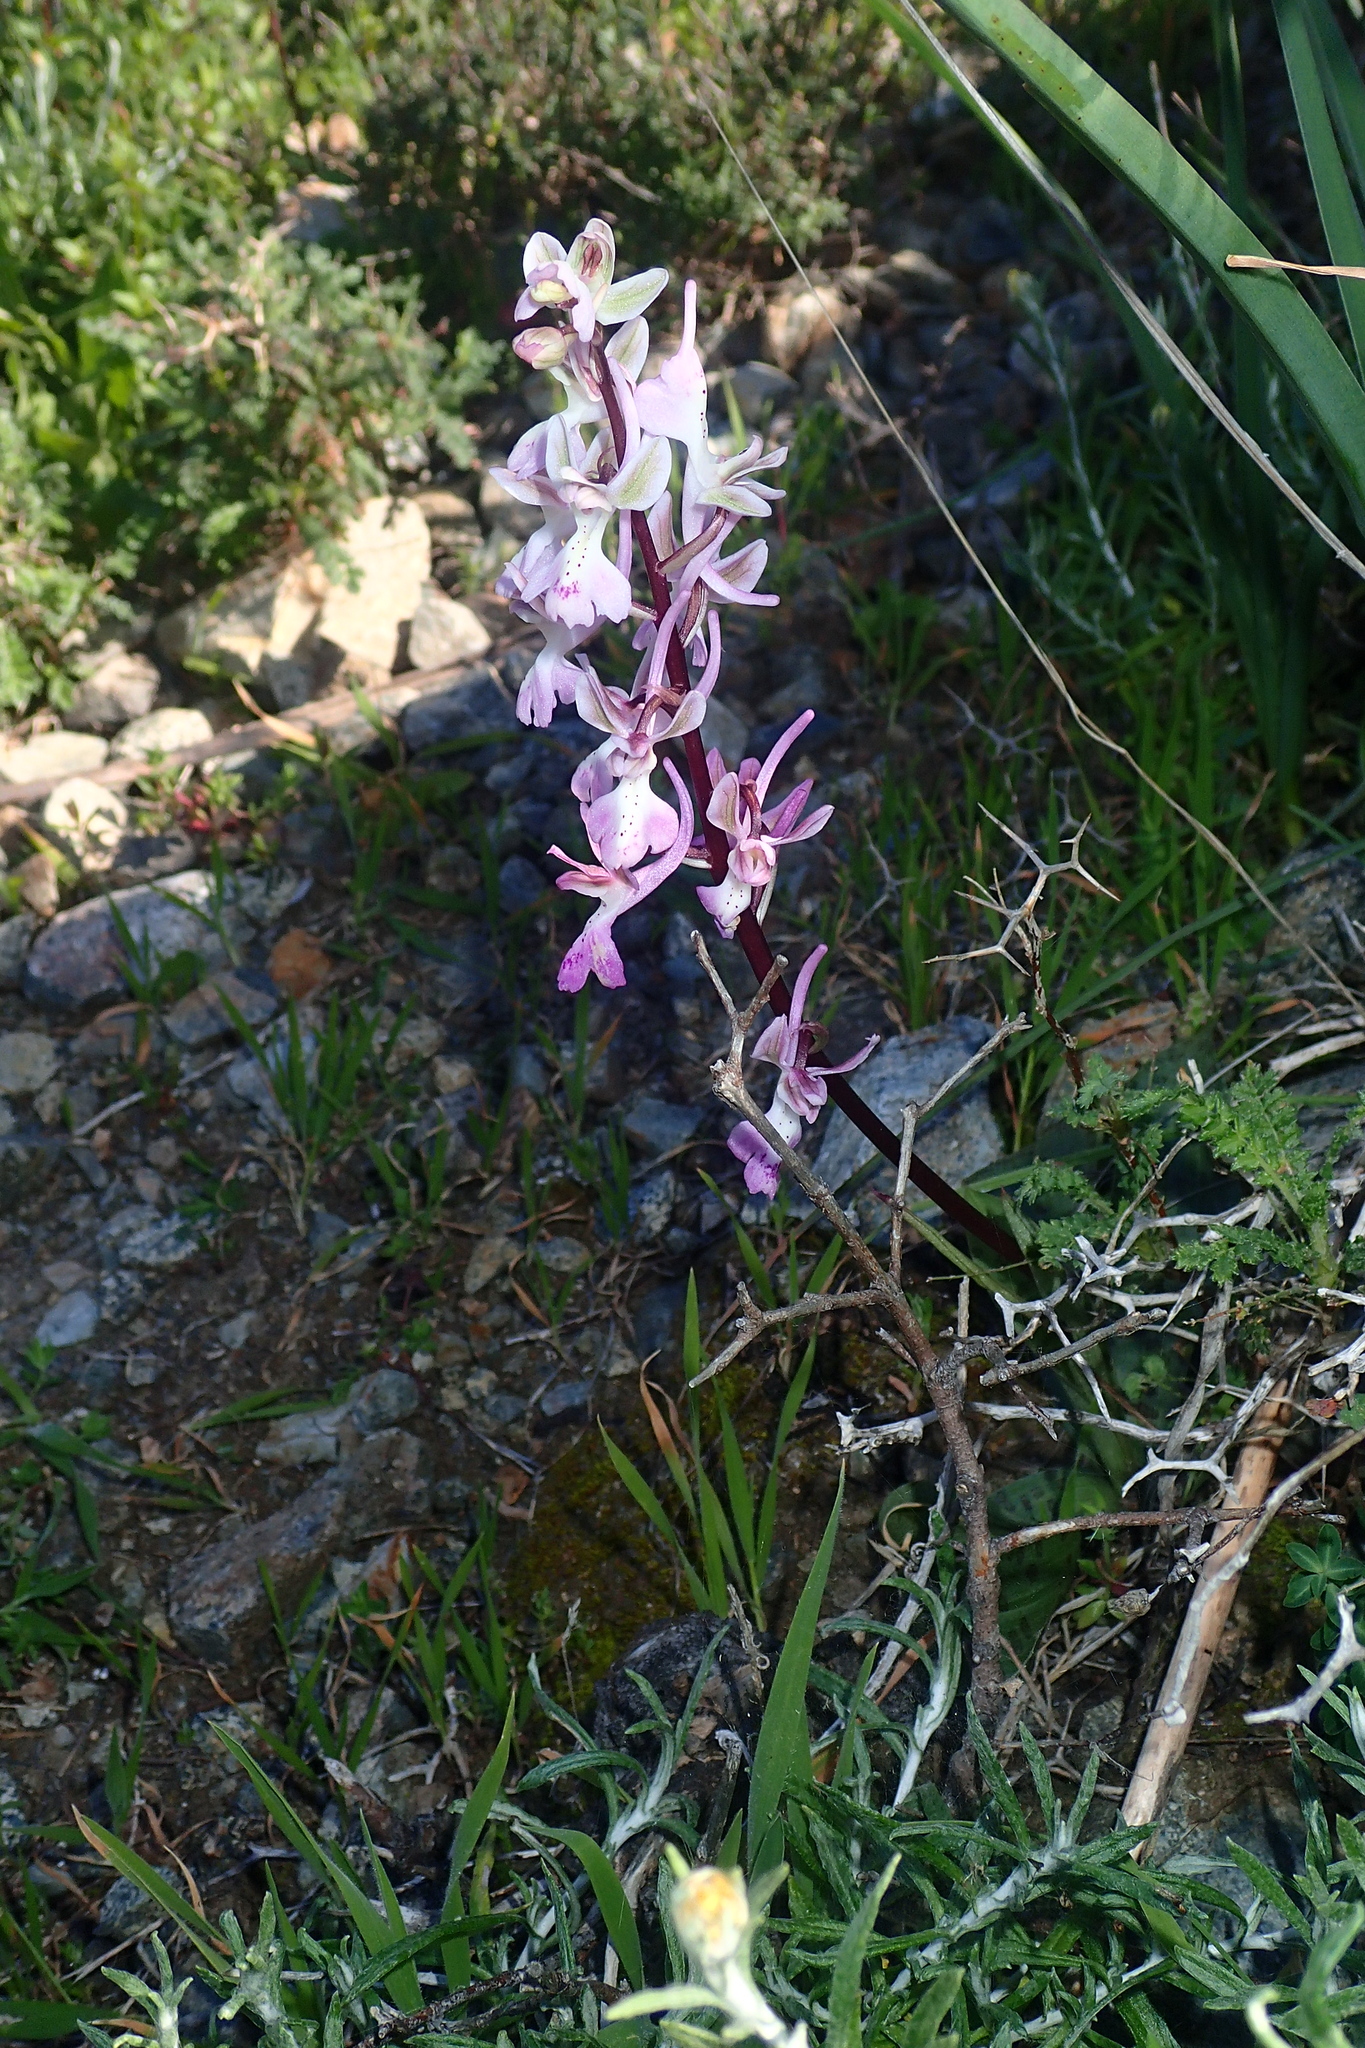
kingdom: Plantae
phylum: Tracheophyta
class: Liliopsida
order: Asparagales
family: Orchidaceae
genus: Orchis
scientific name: Orchis anatolica
